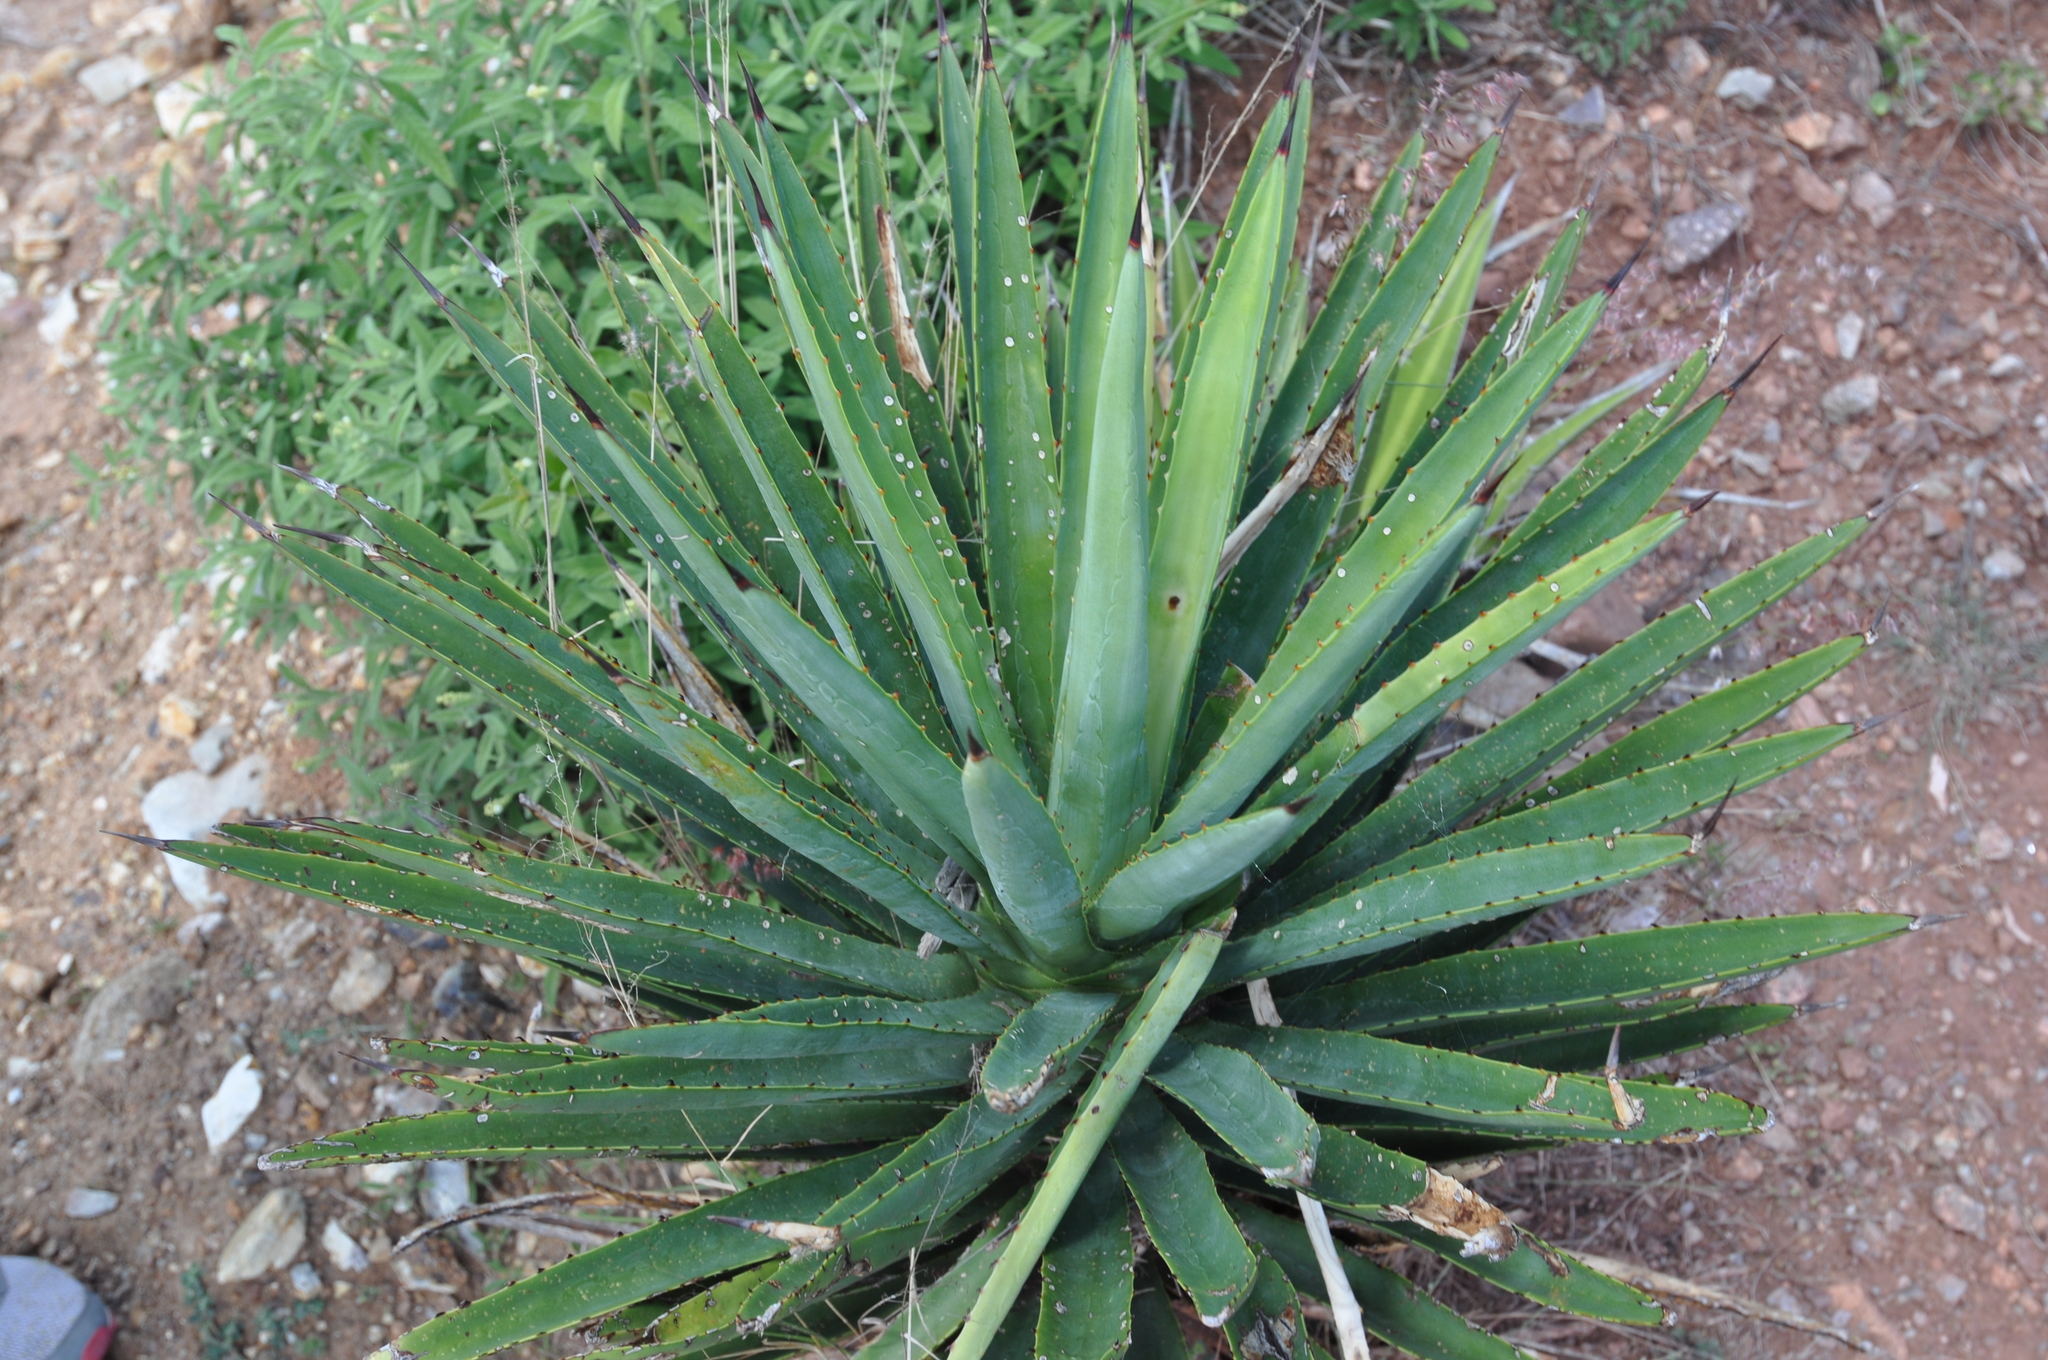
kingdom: Plantae
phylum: Tracheophyta
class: Liliopsida
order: Asparagales
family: Asparagaceae
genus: Agave
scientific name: Agave karwinskii
